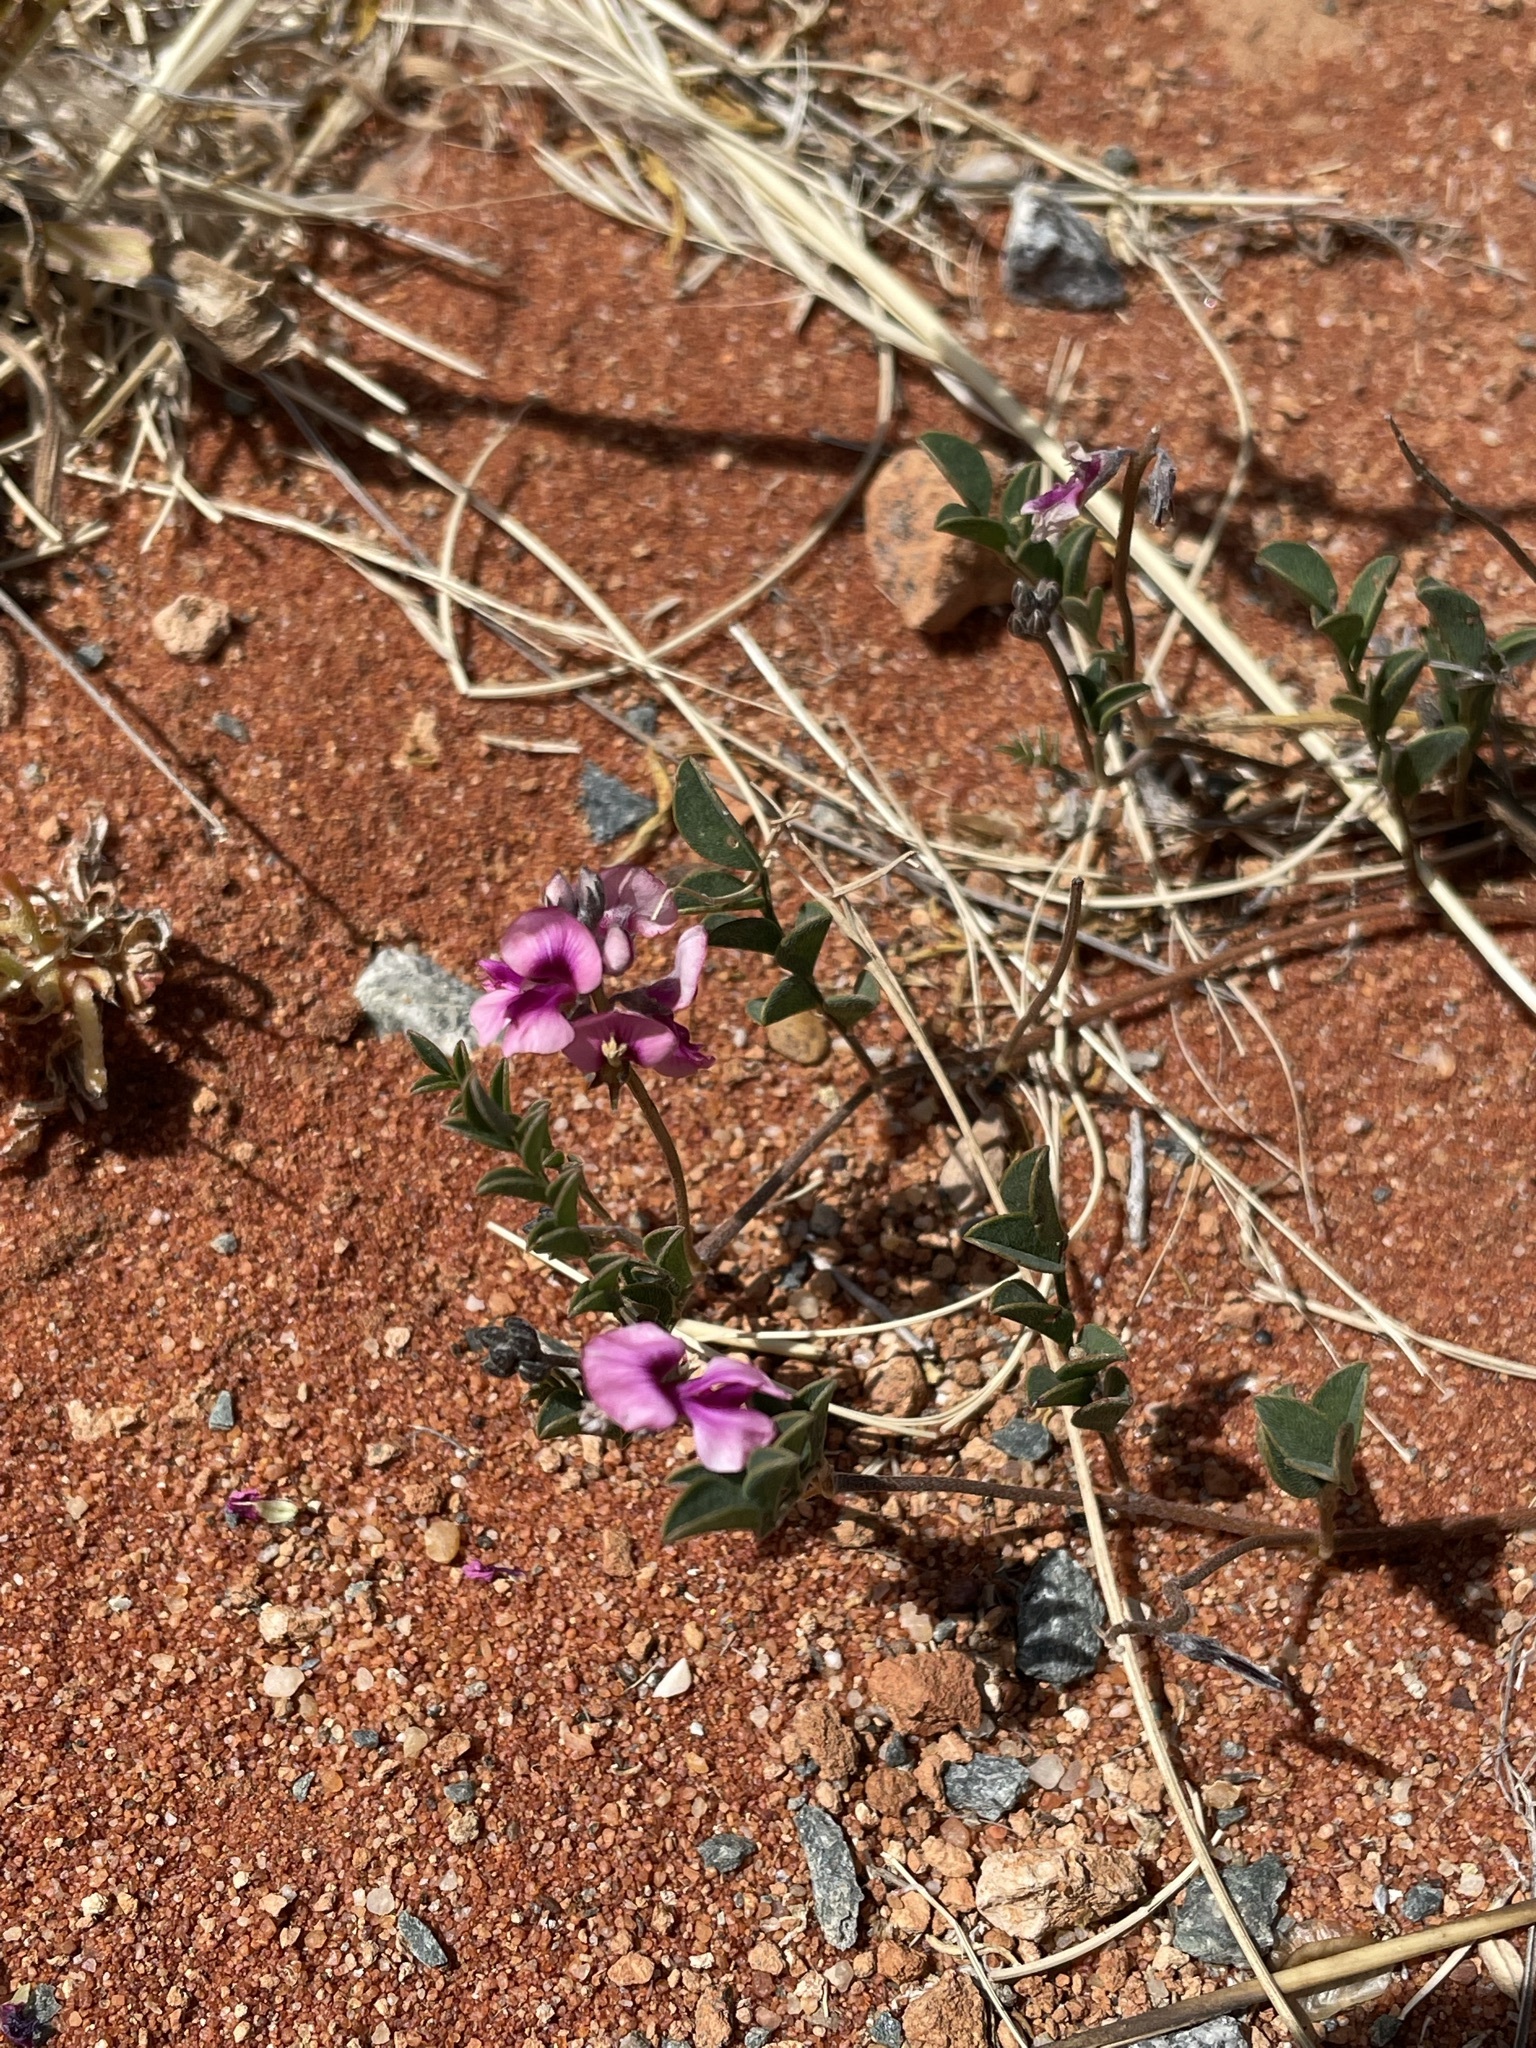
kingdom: Plantae
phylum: Tracheophyta
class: Magnoliopsida
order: Fabales
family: Fabaceae
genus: Indigofera
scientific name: Indigofera exigua
